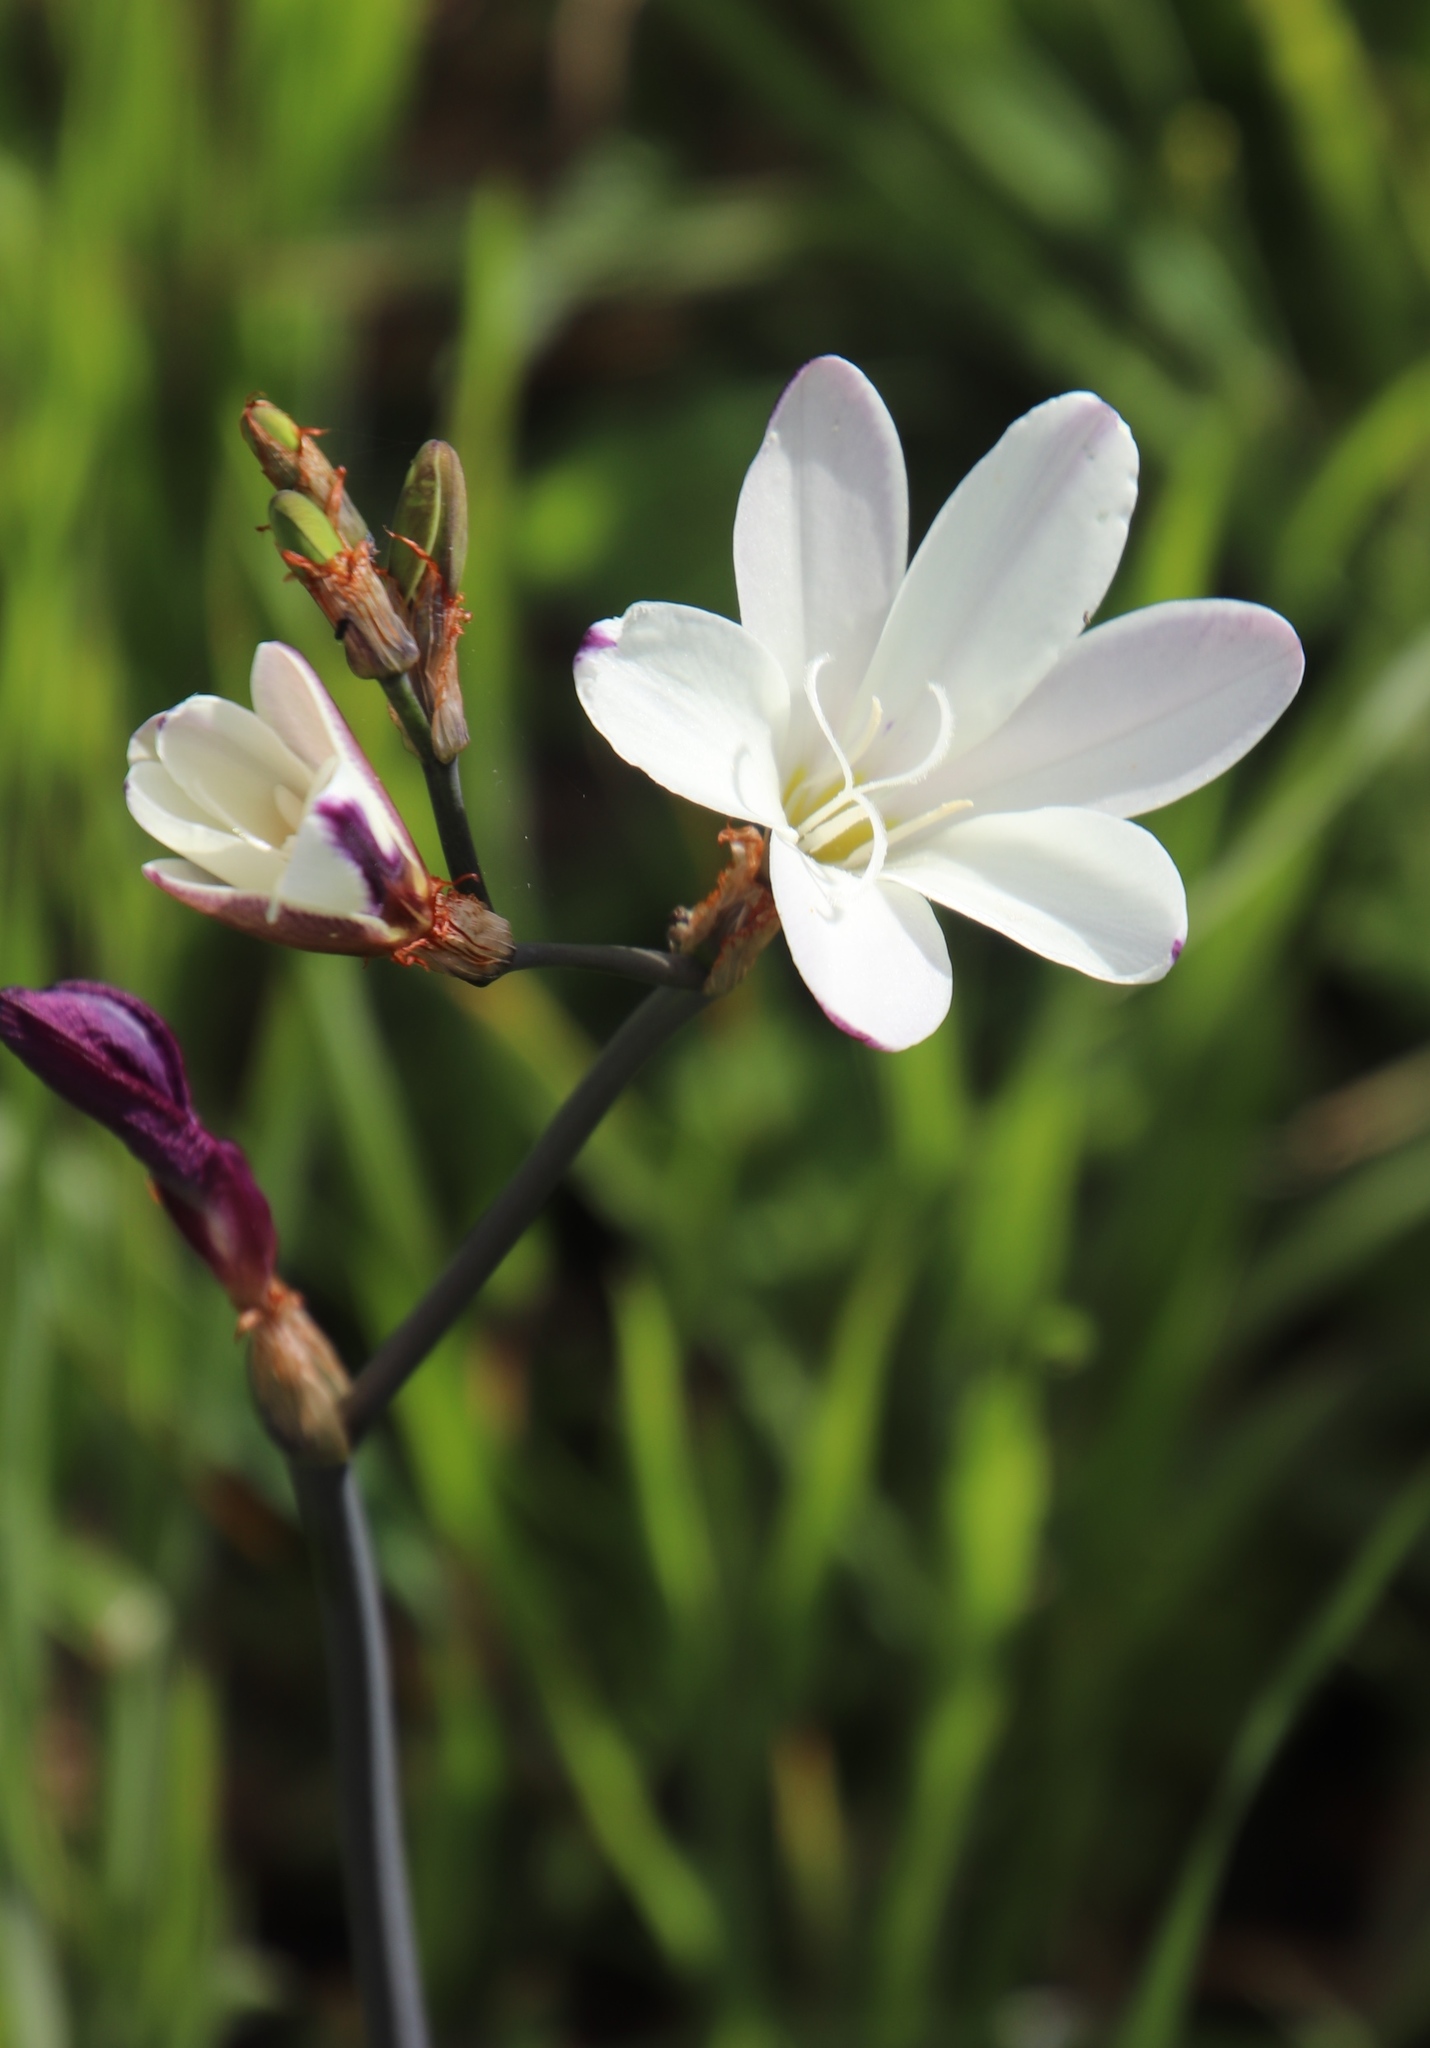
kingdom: Plantae
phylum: Tracheophyta
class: Liliopsida
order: Asparagales
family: Iridaceae
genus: Sparaxis
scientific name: Sparaxis bulbifera
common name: Harlequin-flower
